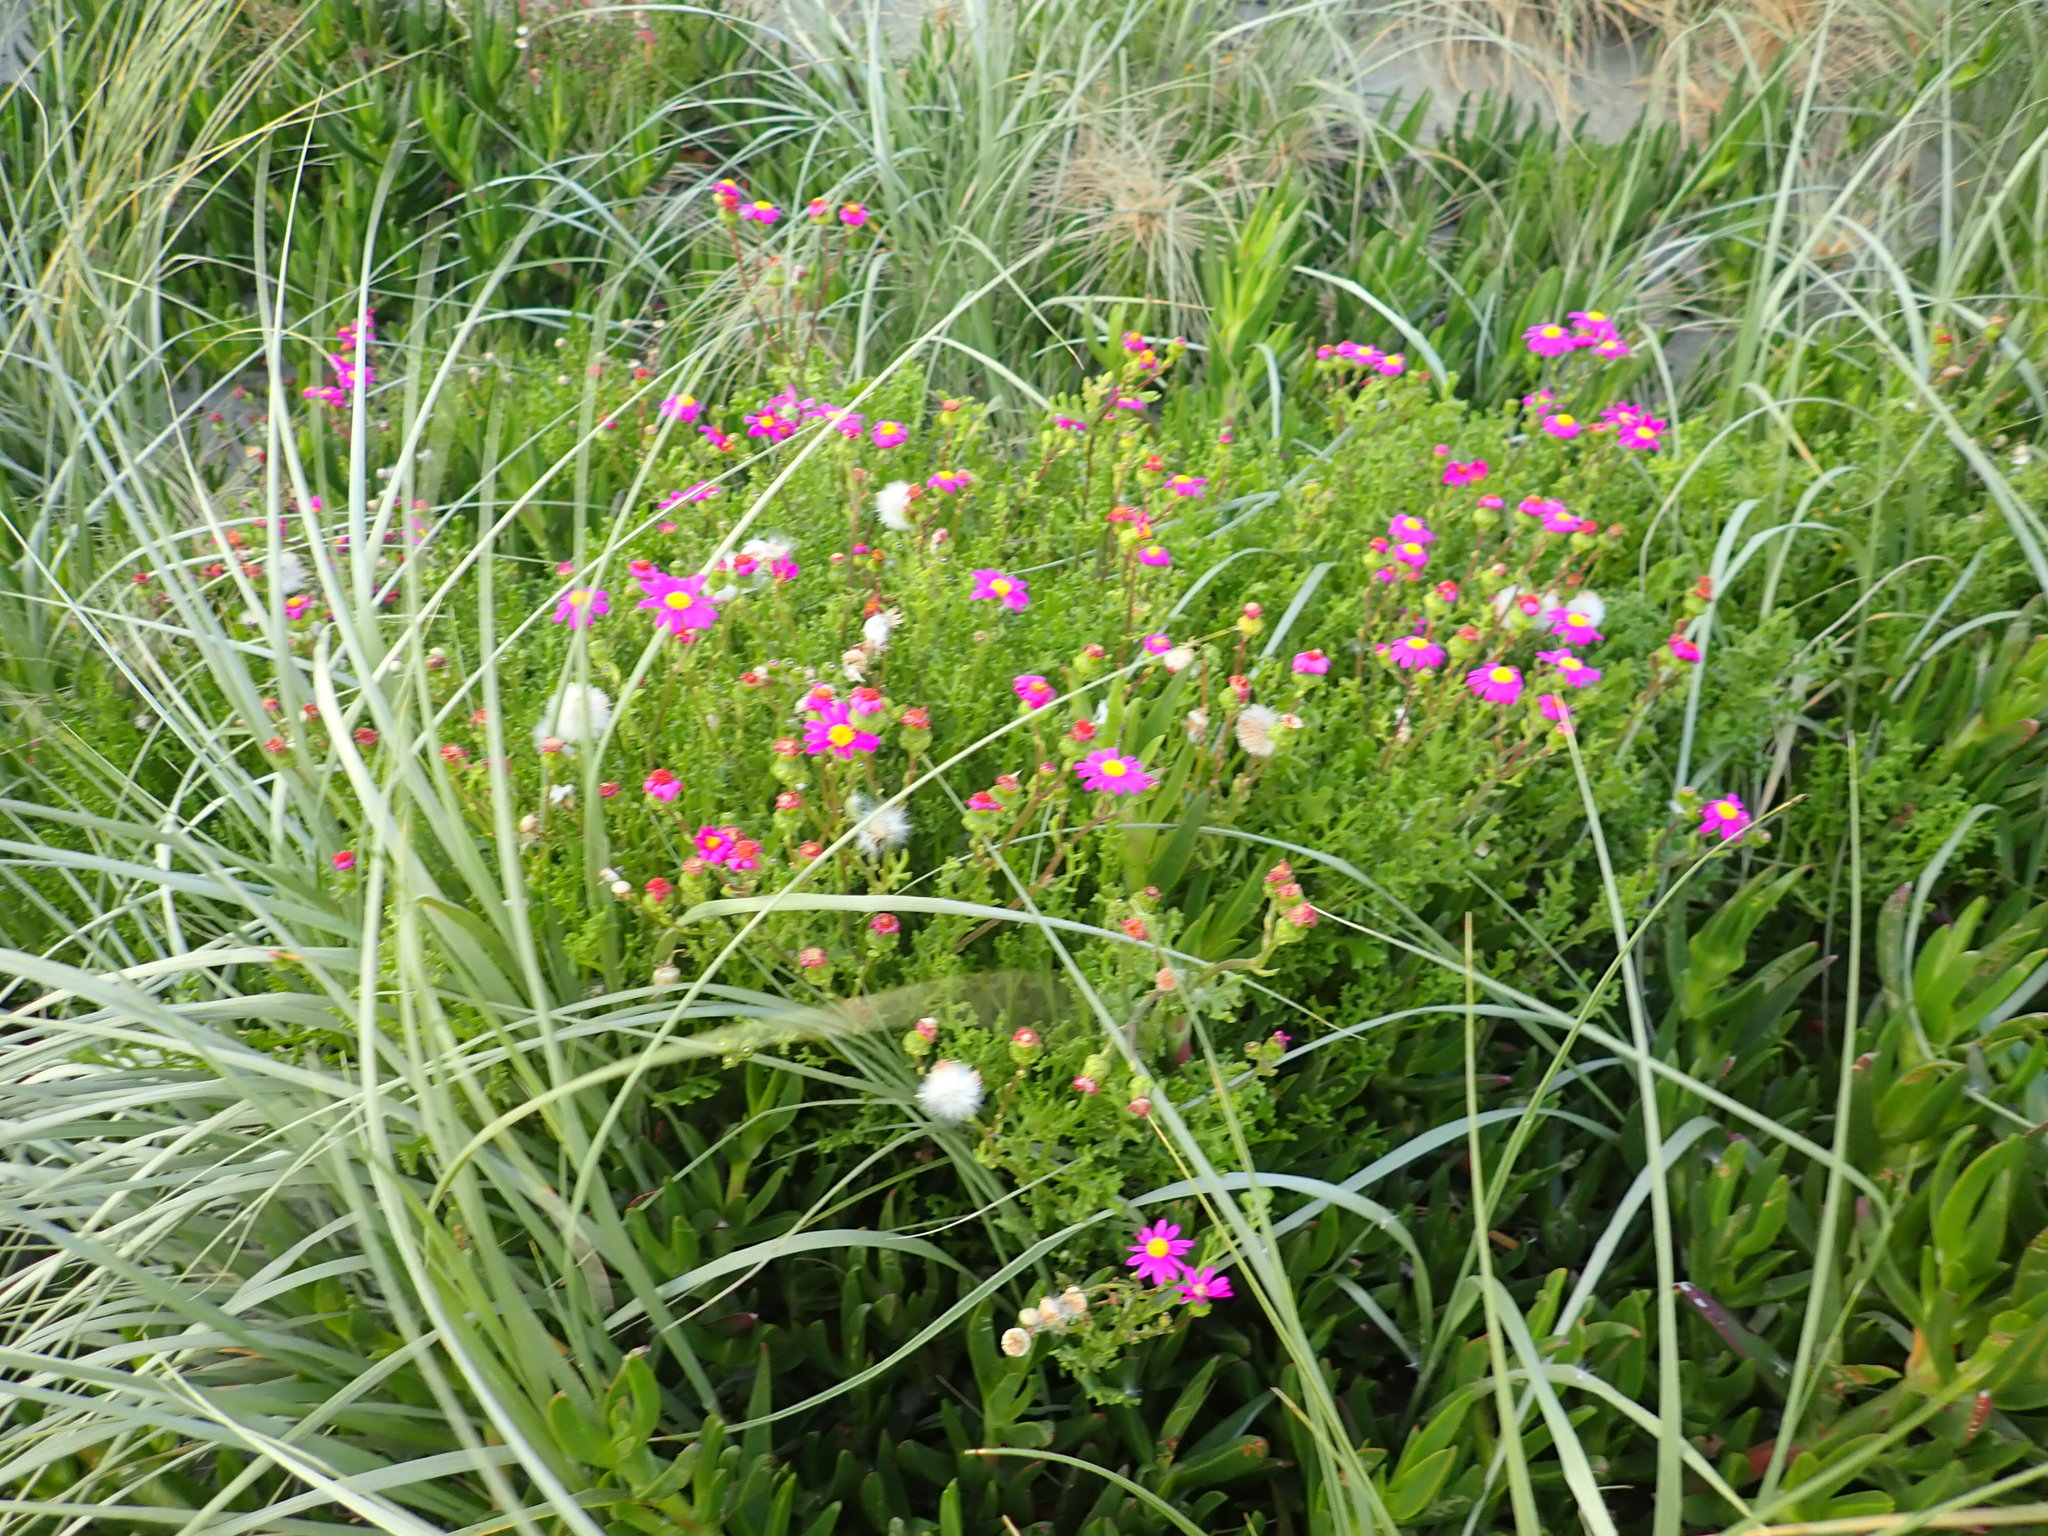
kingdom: Plantae
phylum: Tracheophyta
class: Magnoliopsida
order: Asterales
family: Asteraceae
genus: Senecio
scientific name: Senecio elegans
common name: Purple groundsel
